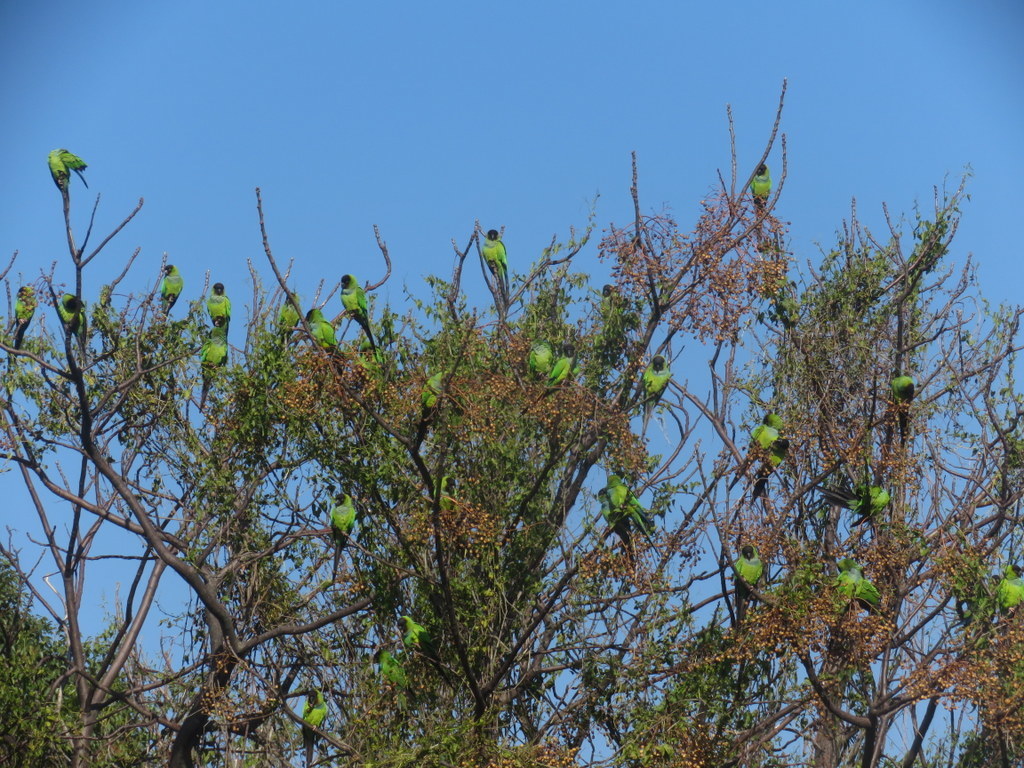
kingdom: Animalia
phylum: Chordata
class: Aves
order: Psittaciformes
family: Psittacidae
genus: Nandayus
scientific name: Nandayus nenday
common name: Nanday parakeet
